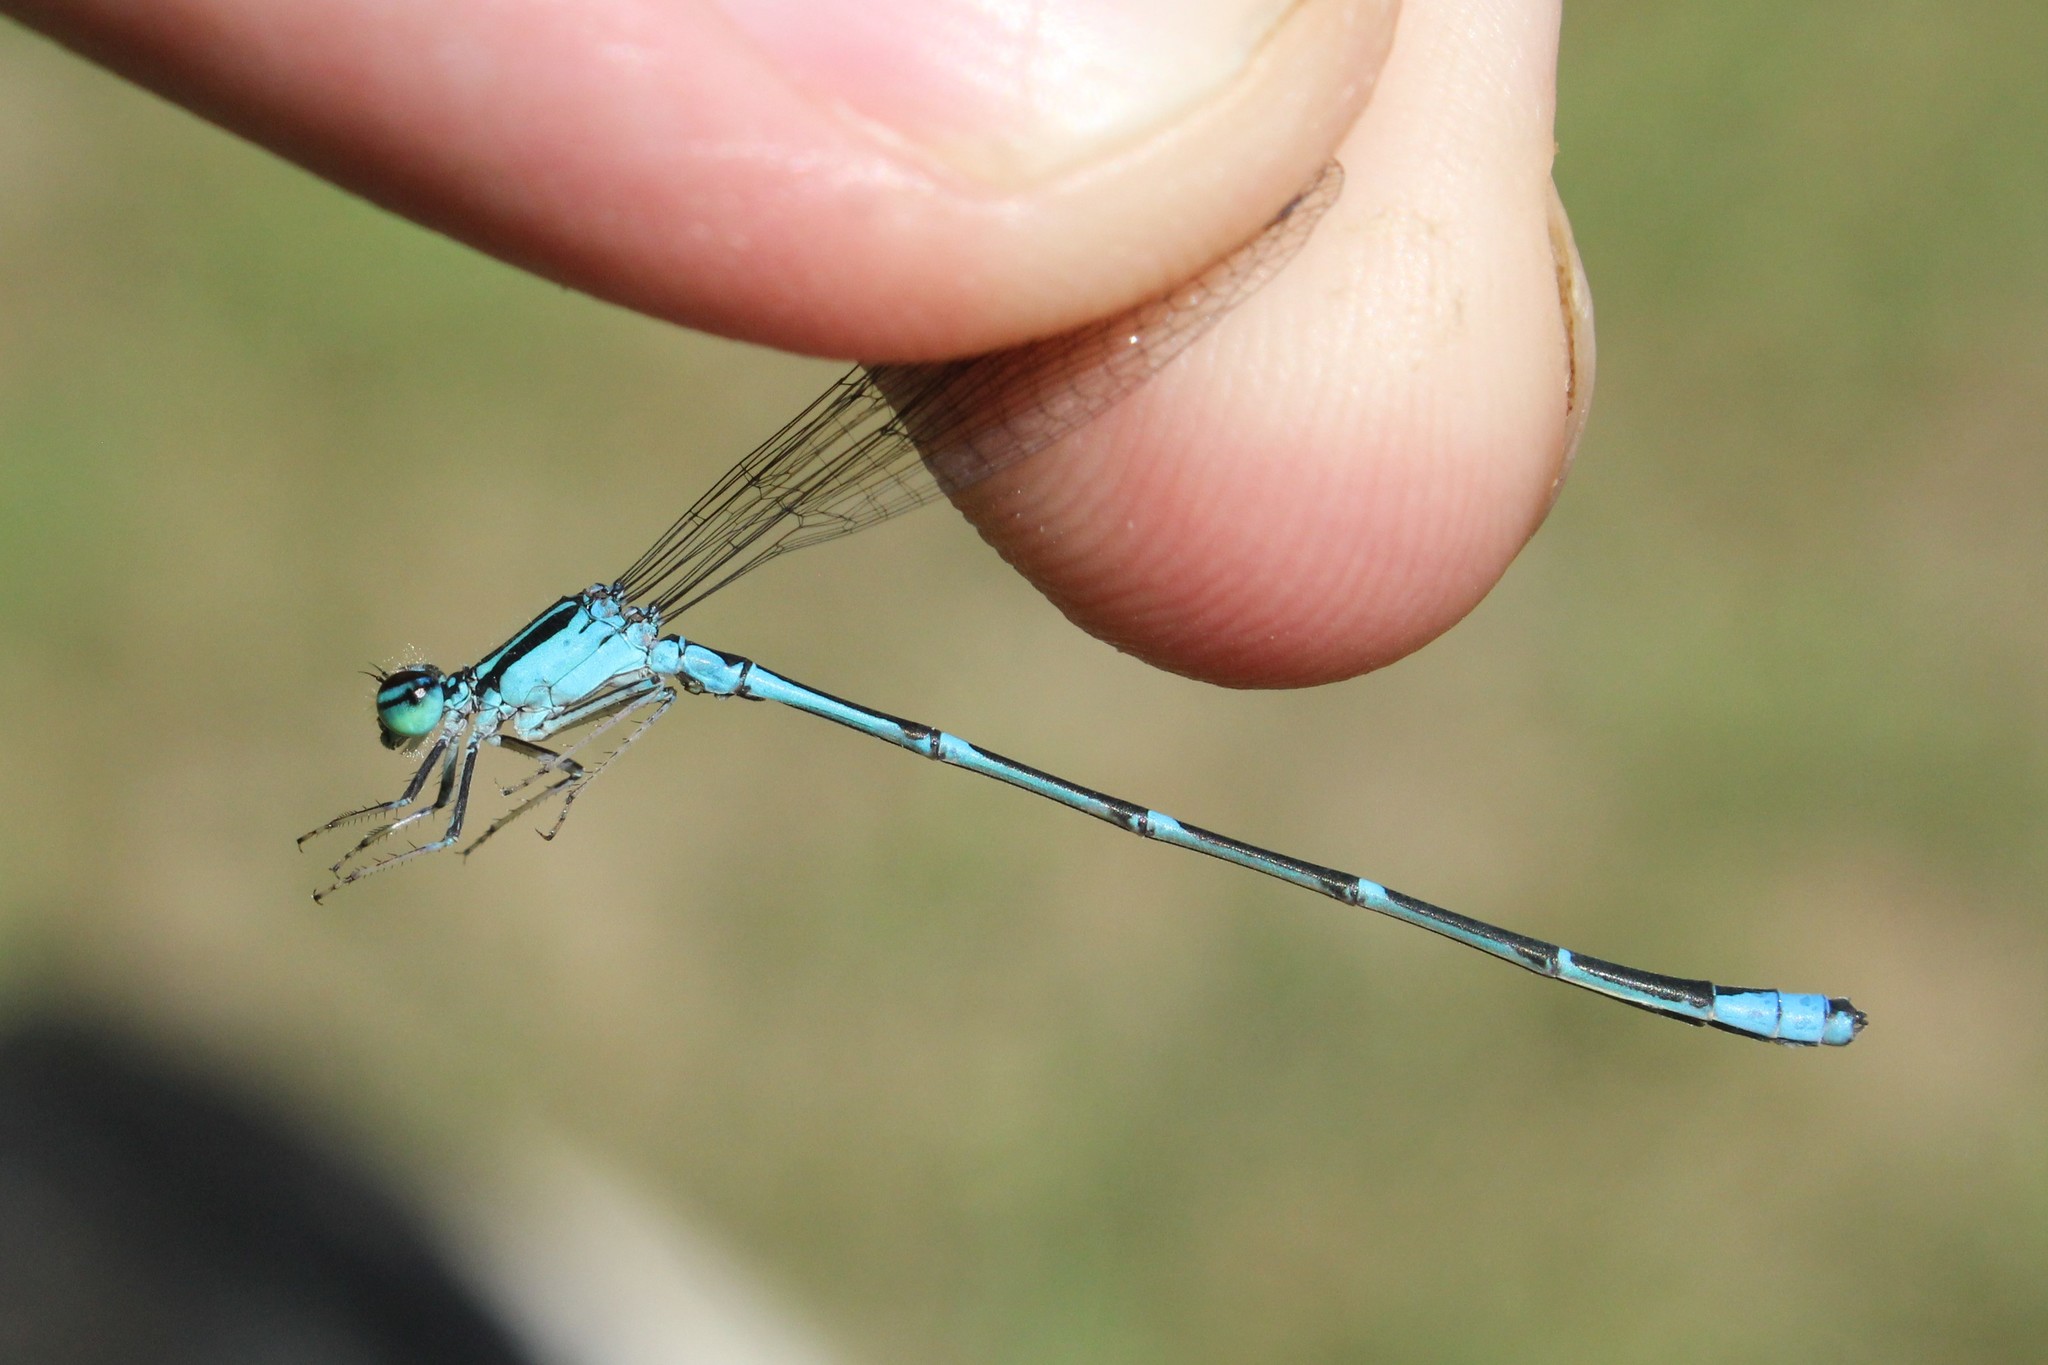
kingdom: Animalia
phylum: Arthropoda
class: Insecta
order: Odonata
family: Coenagrionidae
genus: Enallagma
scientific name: Enallagma exsulans
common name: Stream bluet
